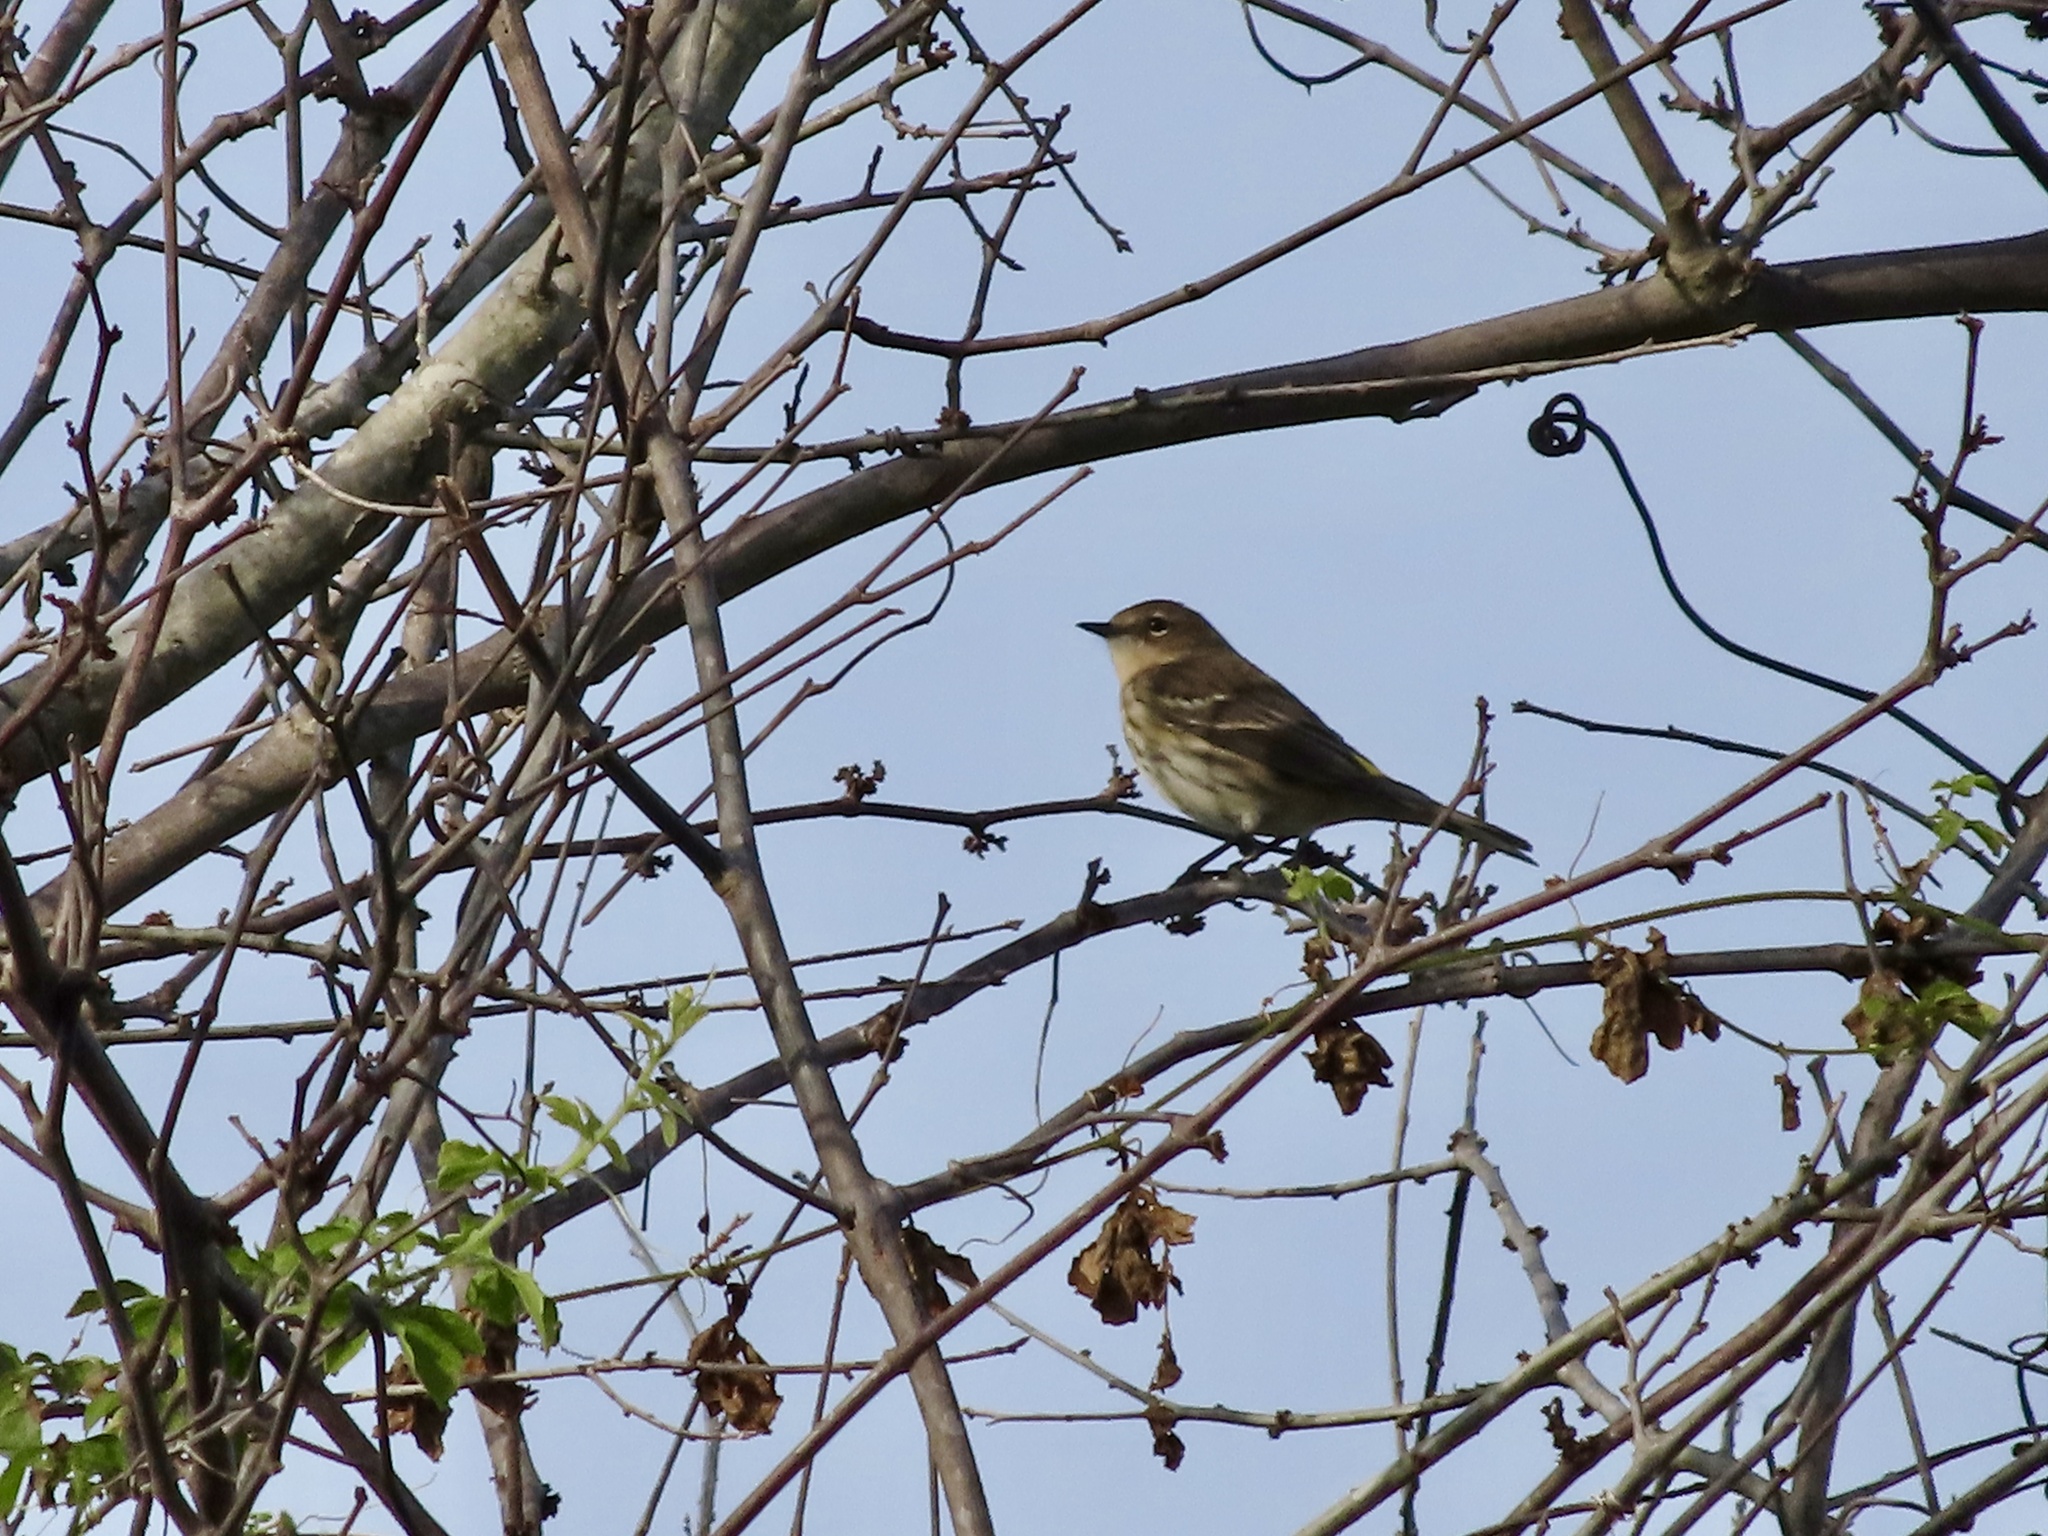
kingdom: Animalia
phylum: Chordata
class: Aves
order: Passeriformes
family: Parulidae
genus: Setophaga
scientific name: Setophaga coronata
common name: Myrtle warbler
